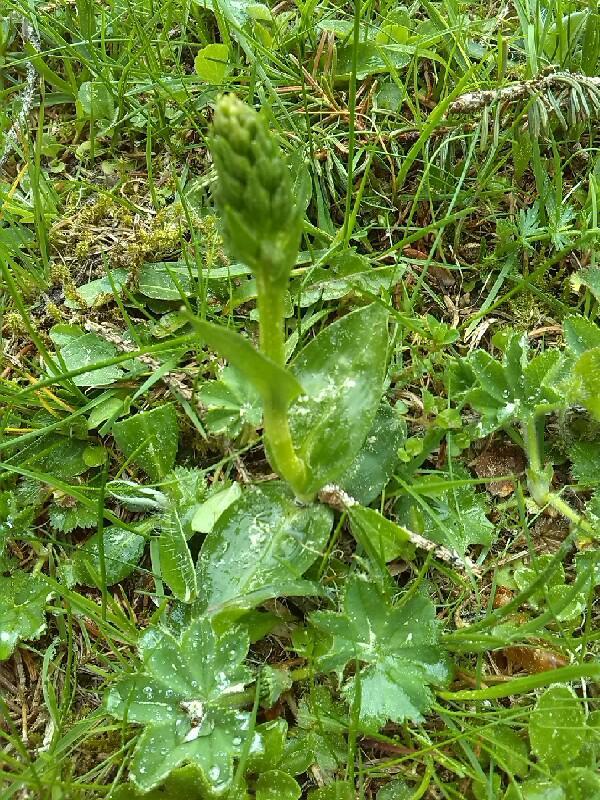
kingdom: Plantae
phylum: Tracheophyta
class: Liliopsida
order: Asparagales
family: Orchidaceae
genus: Dactylorhiza
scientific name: Dactylorhiza viridis
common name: Longbract frog orchid
